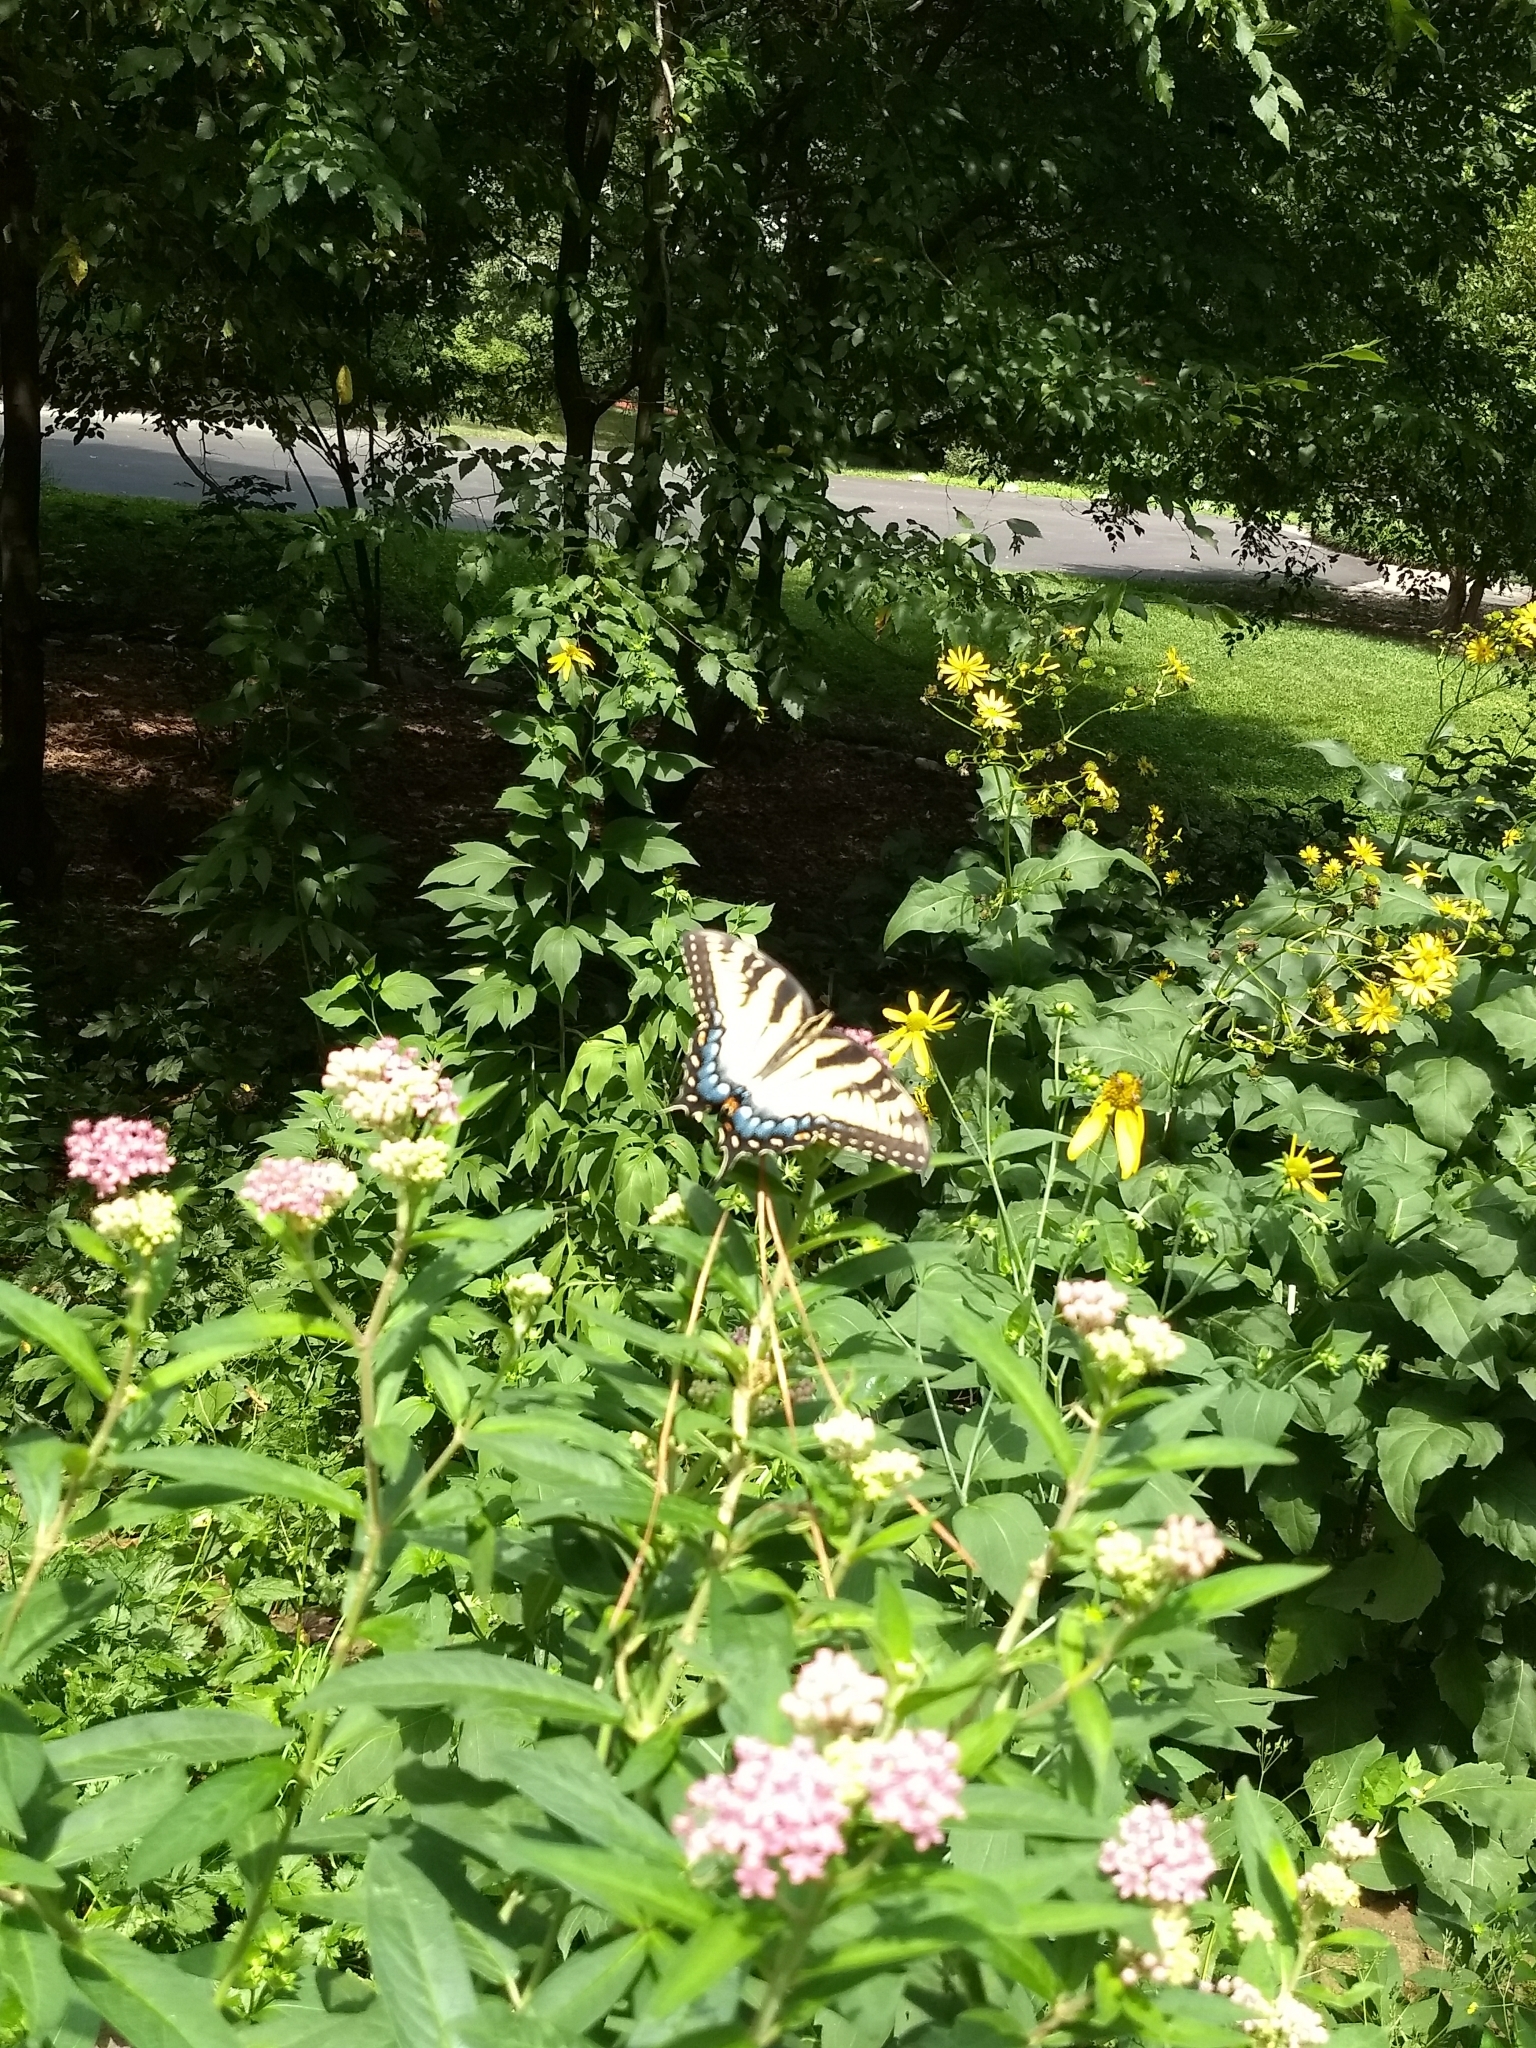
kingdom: Animalia
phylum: Arthropoda
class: Insecta
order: Lepidoptera
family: Papilionidae
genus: Papilio
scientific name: Papilio glaucus
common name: Tiger swallowtail
